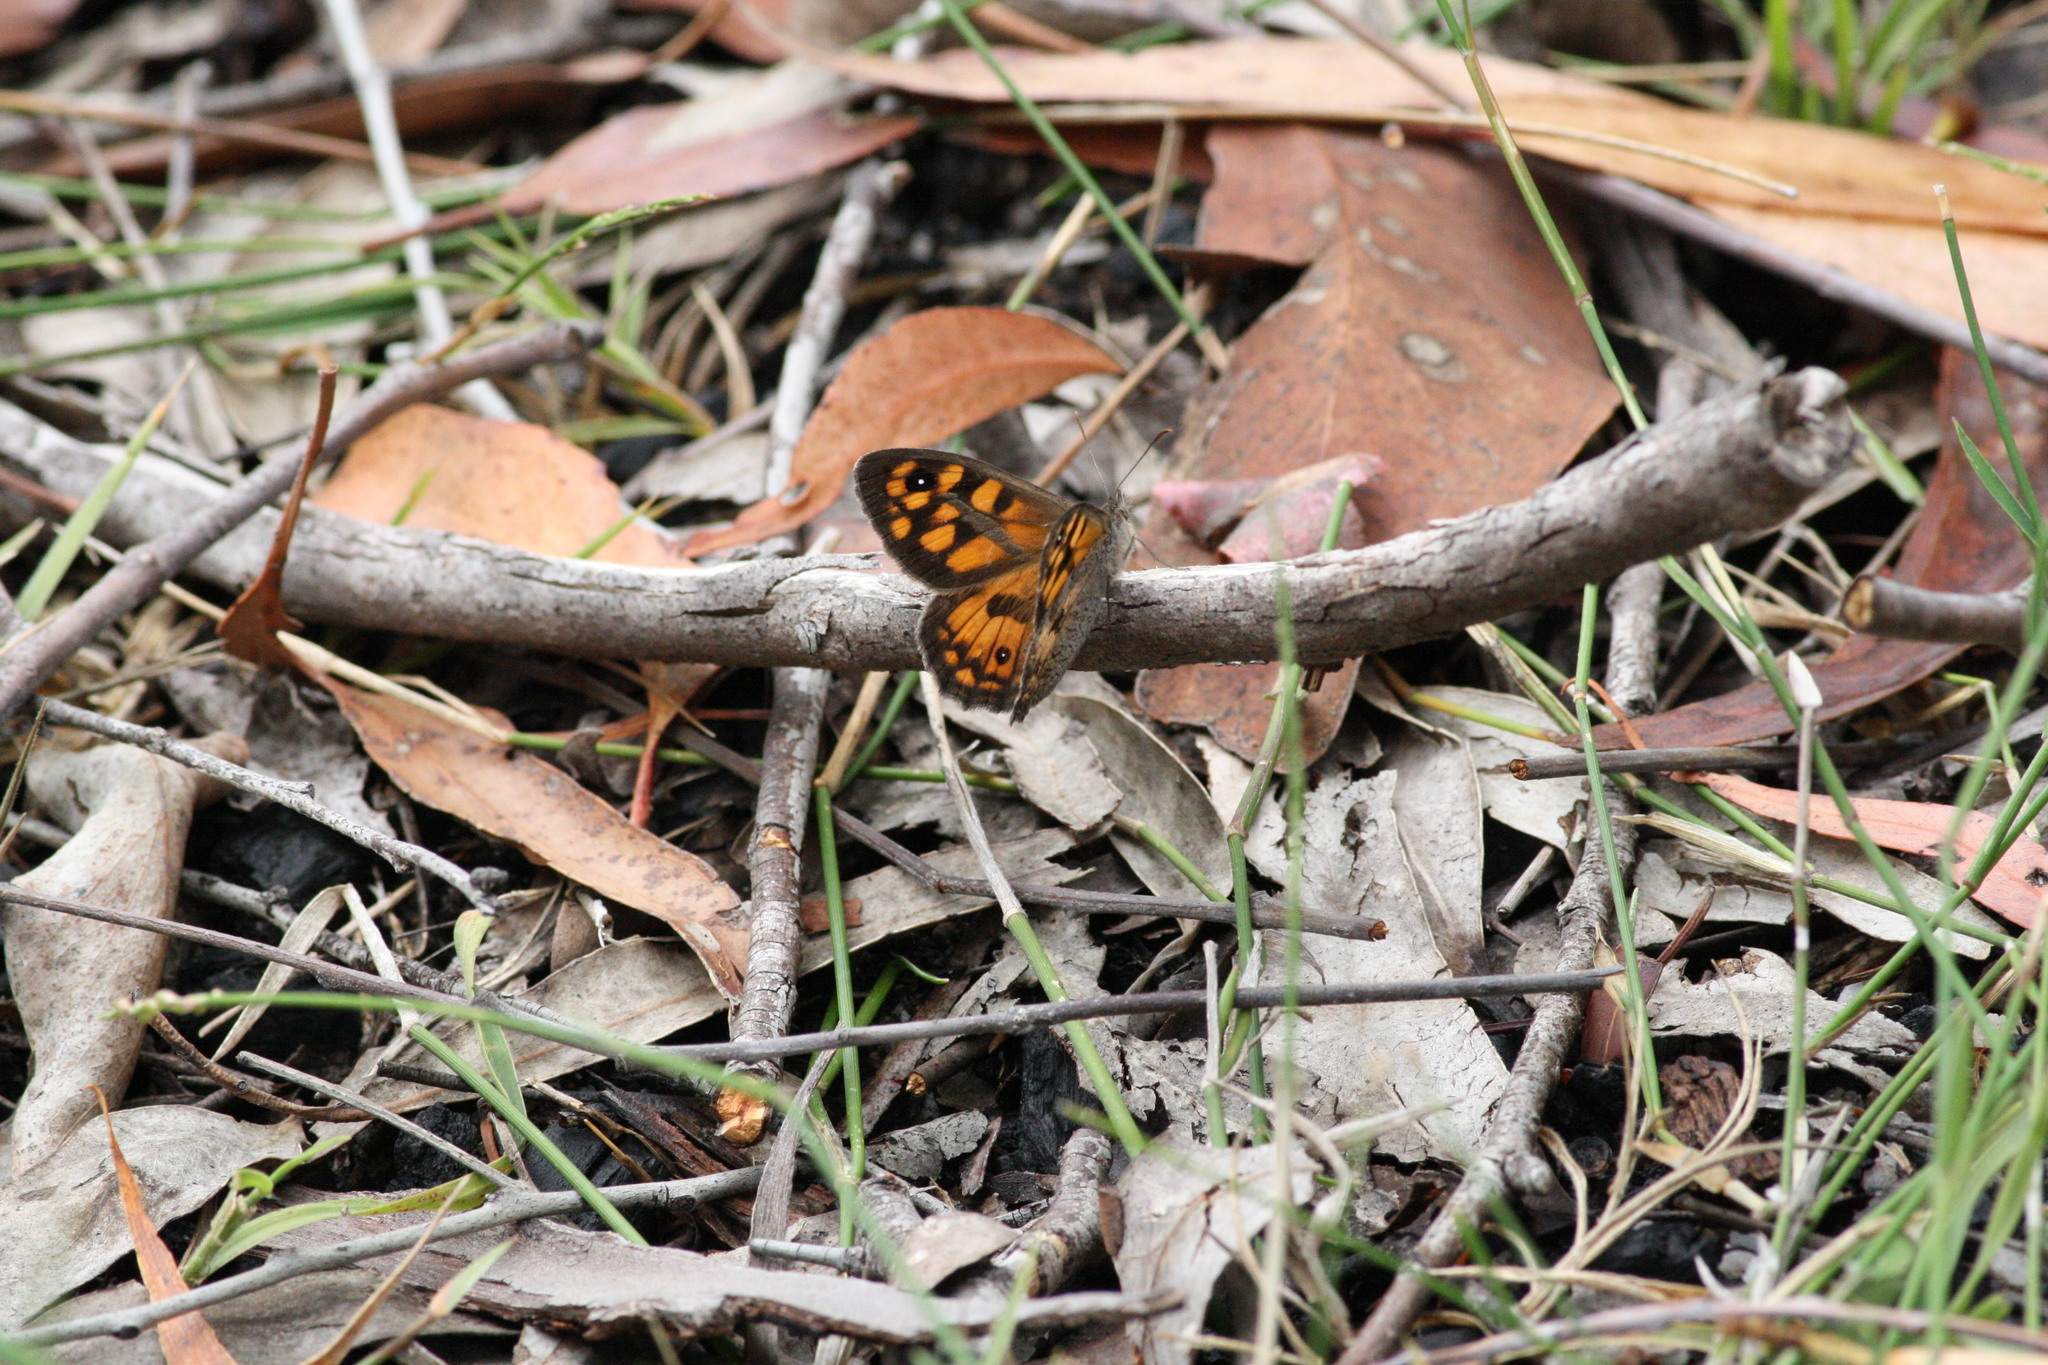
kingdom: Animalia
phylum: Arthropoda
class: Insecta
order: Lepidoptera
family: Nymphalidae
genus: Geitoneura
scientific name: Geitoneura klugii
